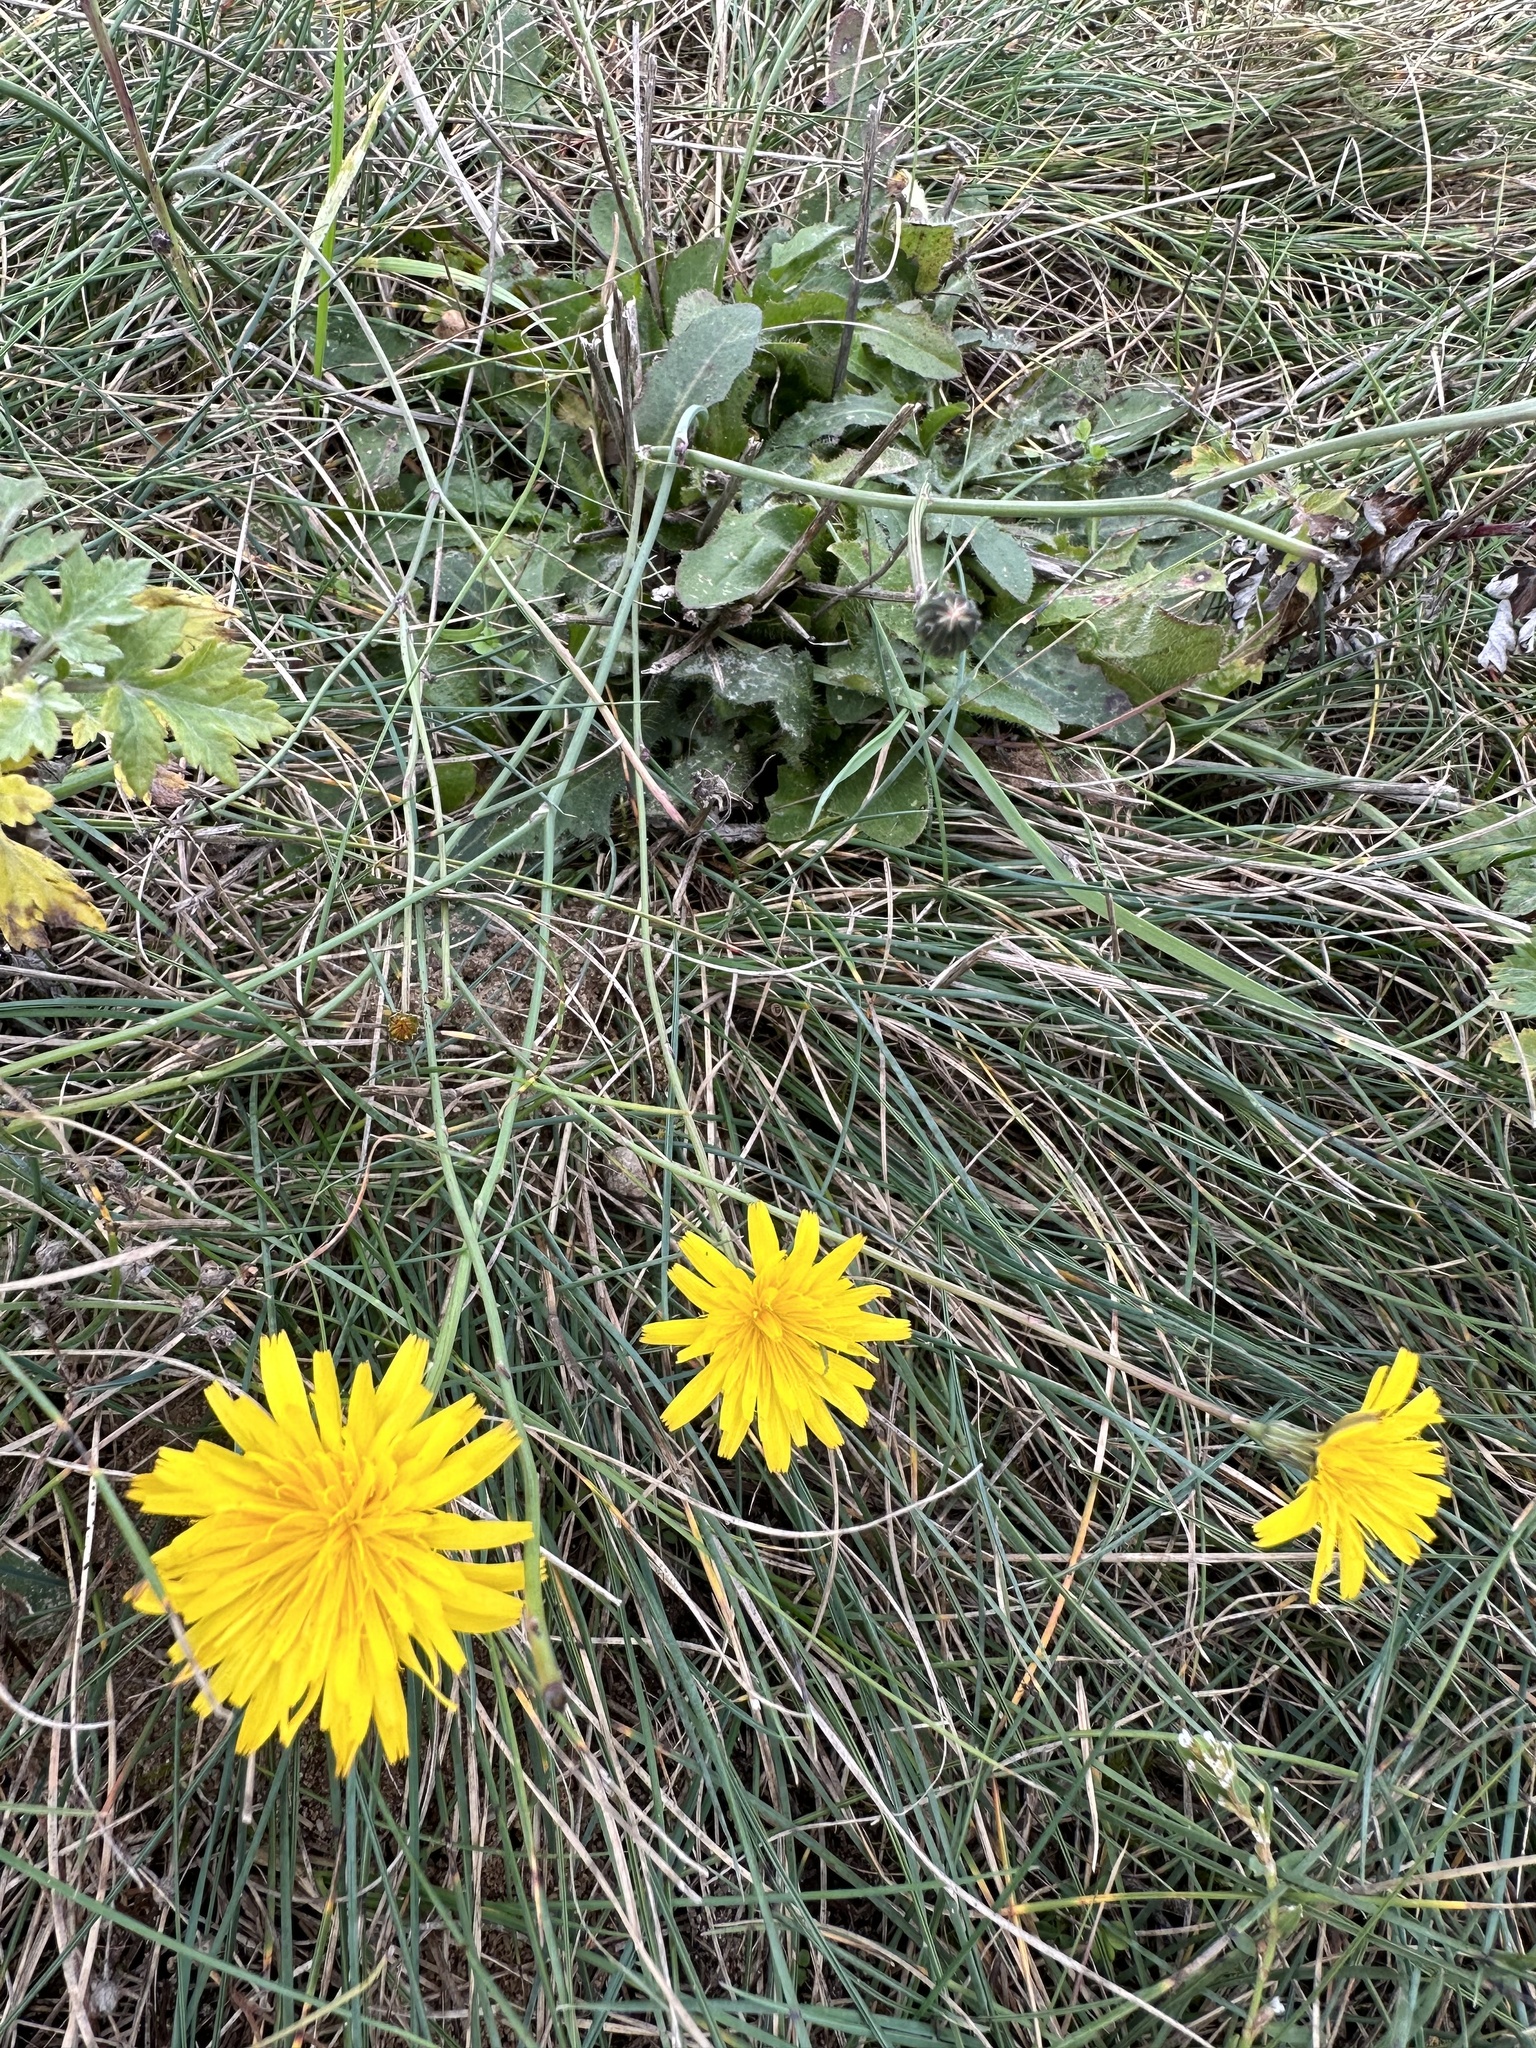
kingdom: Plantae
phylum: Tracheophyta
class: Magnoliopsida
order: Asterales
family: Asteraceae
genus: Hypochaeris
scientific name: Hypochaeris radicata
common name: Flatweed
